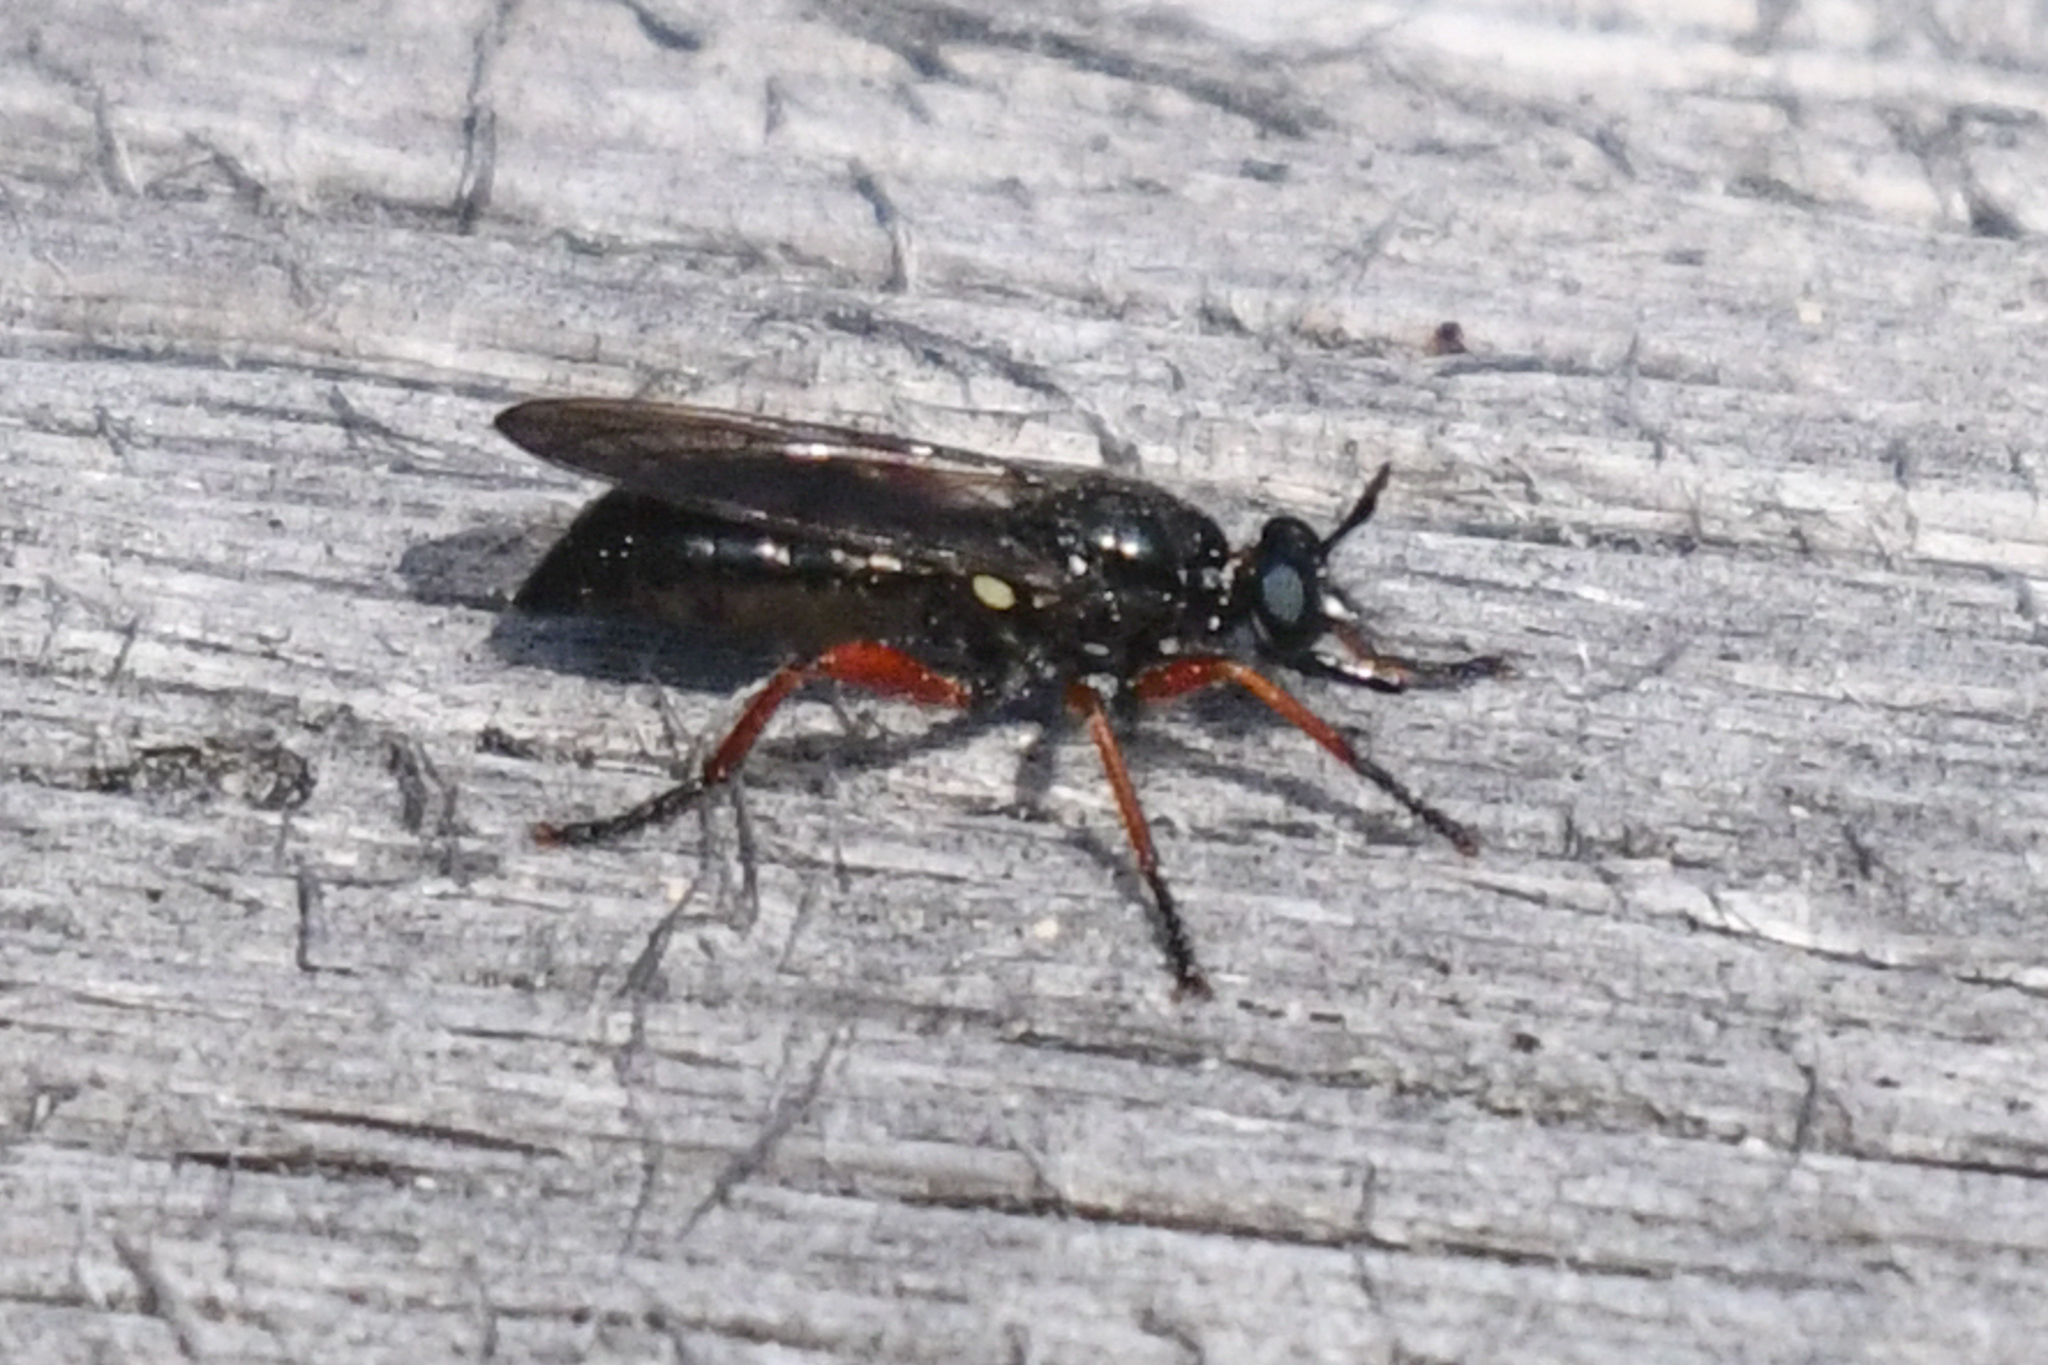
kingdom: Animalia
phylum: Arthropoda
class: Insecta
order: Diptera
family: Asilidae
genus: Laphria
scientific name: Laphria sadales
